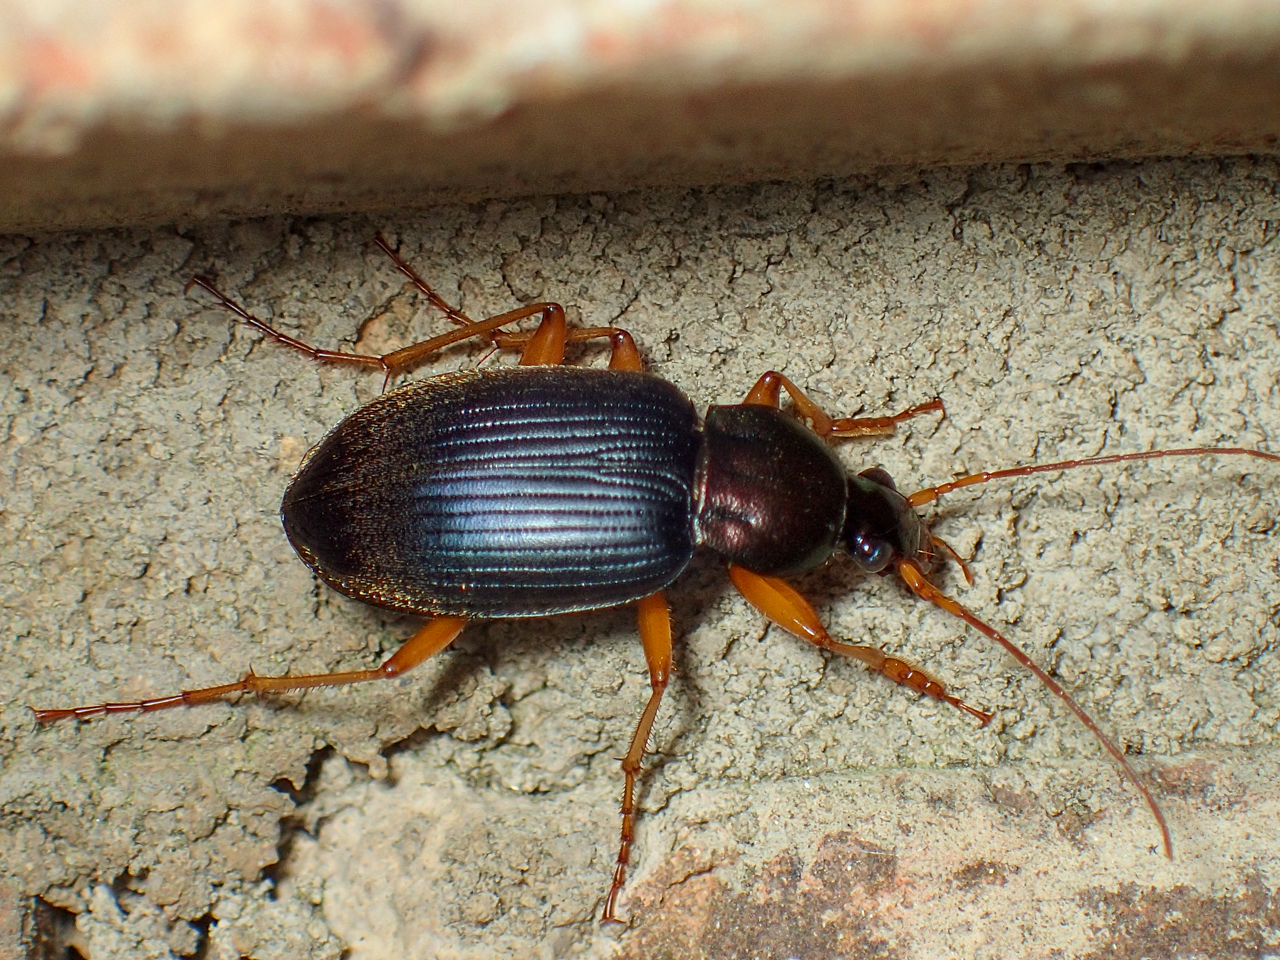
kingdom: Animalia
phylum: Arthropoda
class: Insecta
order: Coleoptera
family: Carabidae
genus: Chlaenius
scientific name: Chlaenius erythropus
